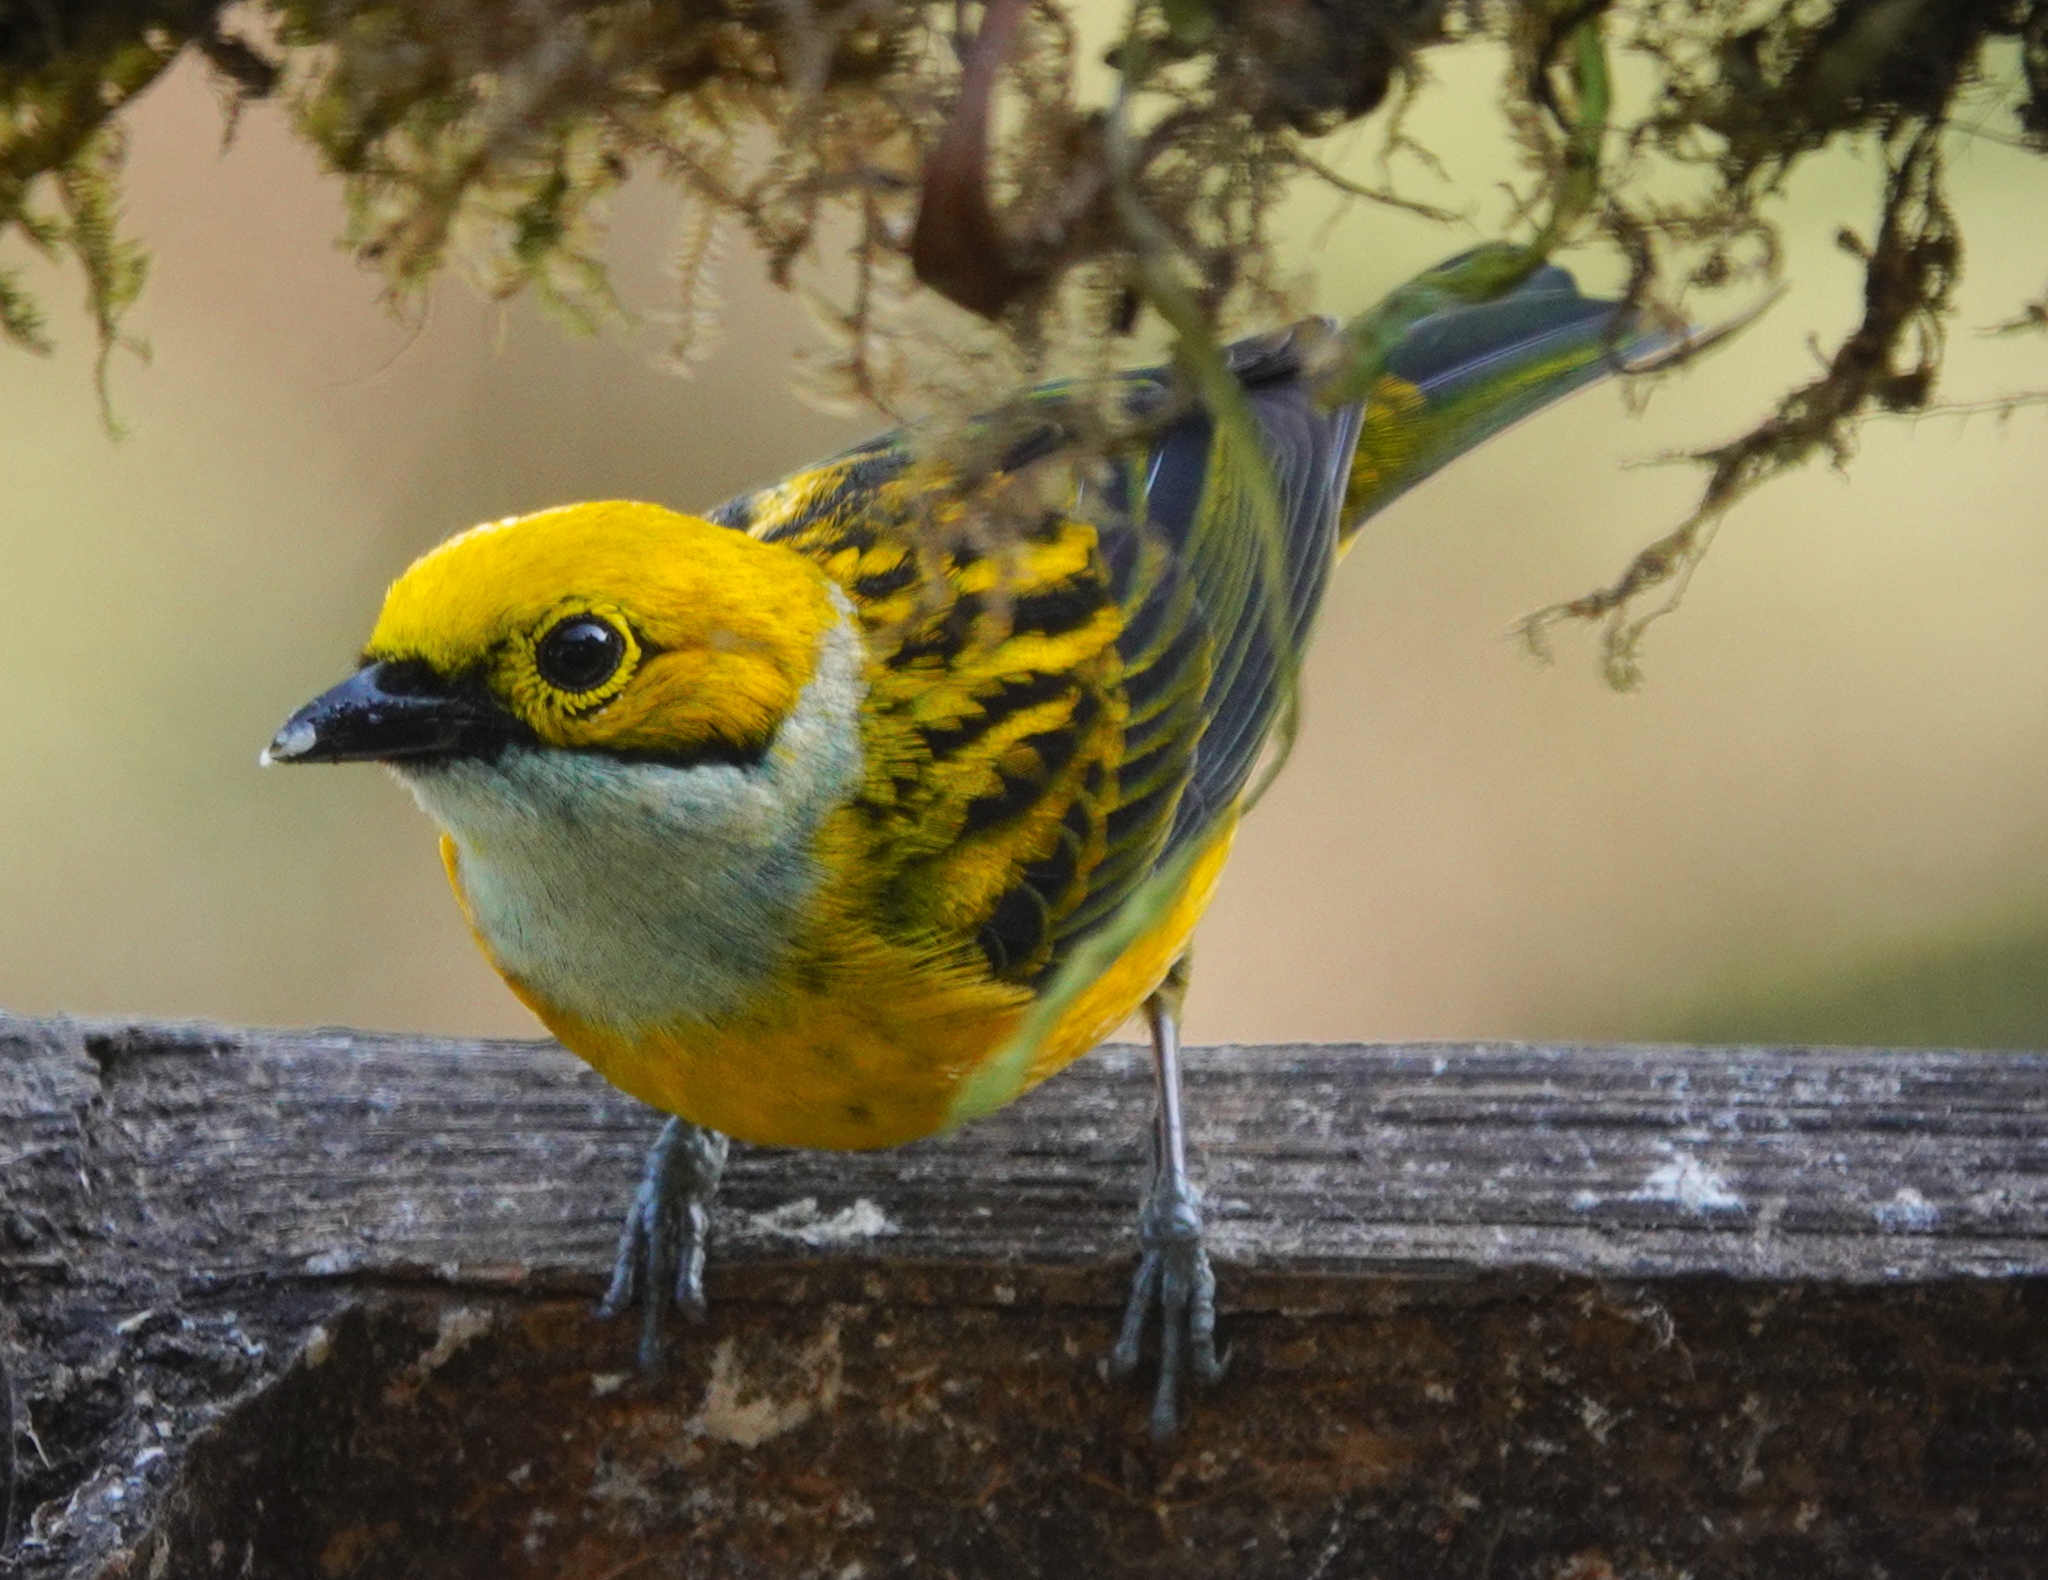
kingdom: Animalia
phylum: Chordata
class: Aves
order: Passeriformes
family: Thraupidae
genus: Tangara
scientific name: Tangara icterocephala
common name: Silver-throated tanager
